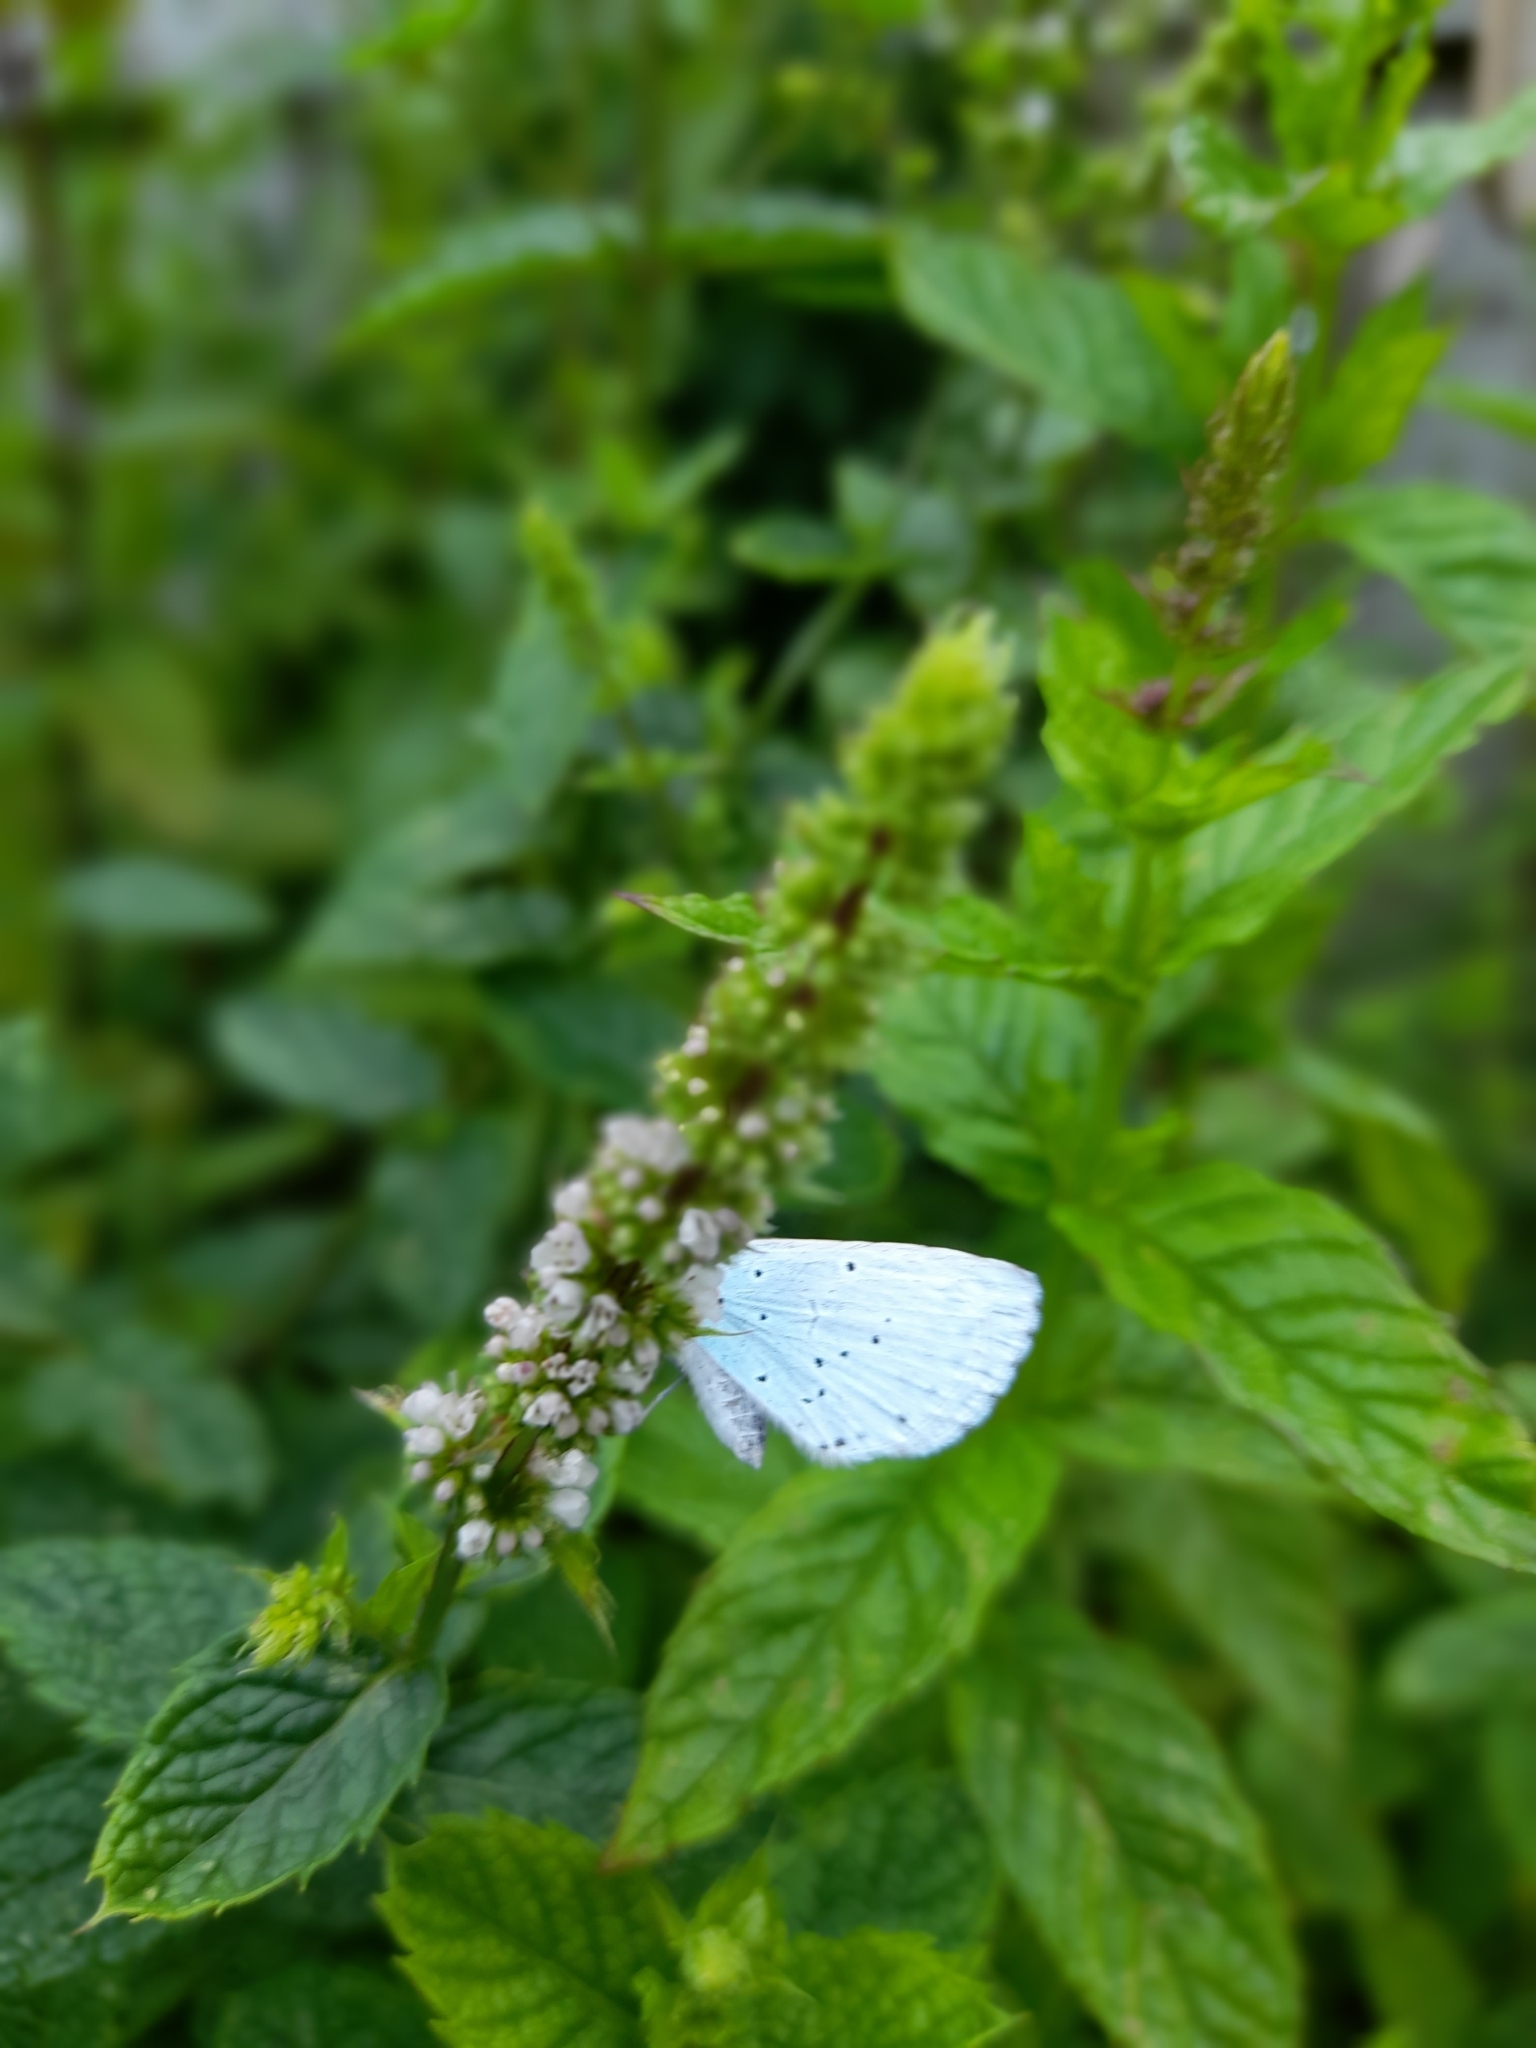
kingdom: Animalia
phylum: Arthropoda
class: Insecta
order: Lepidoptera
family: Lycaenidae
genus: Celastrina
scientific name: Celastrina argiolus
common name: Holly blue
